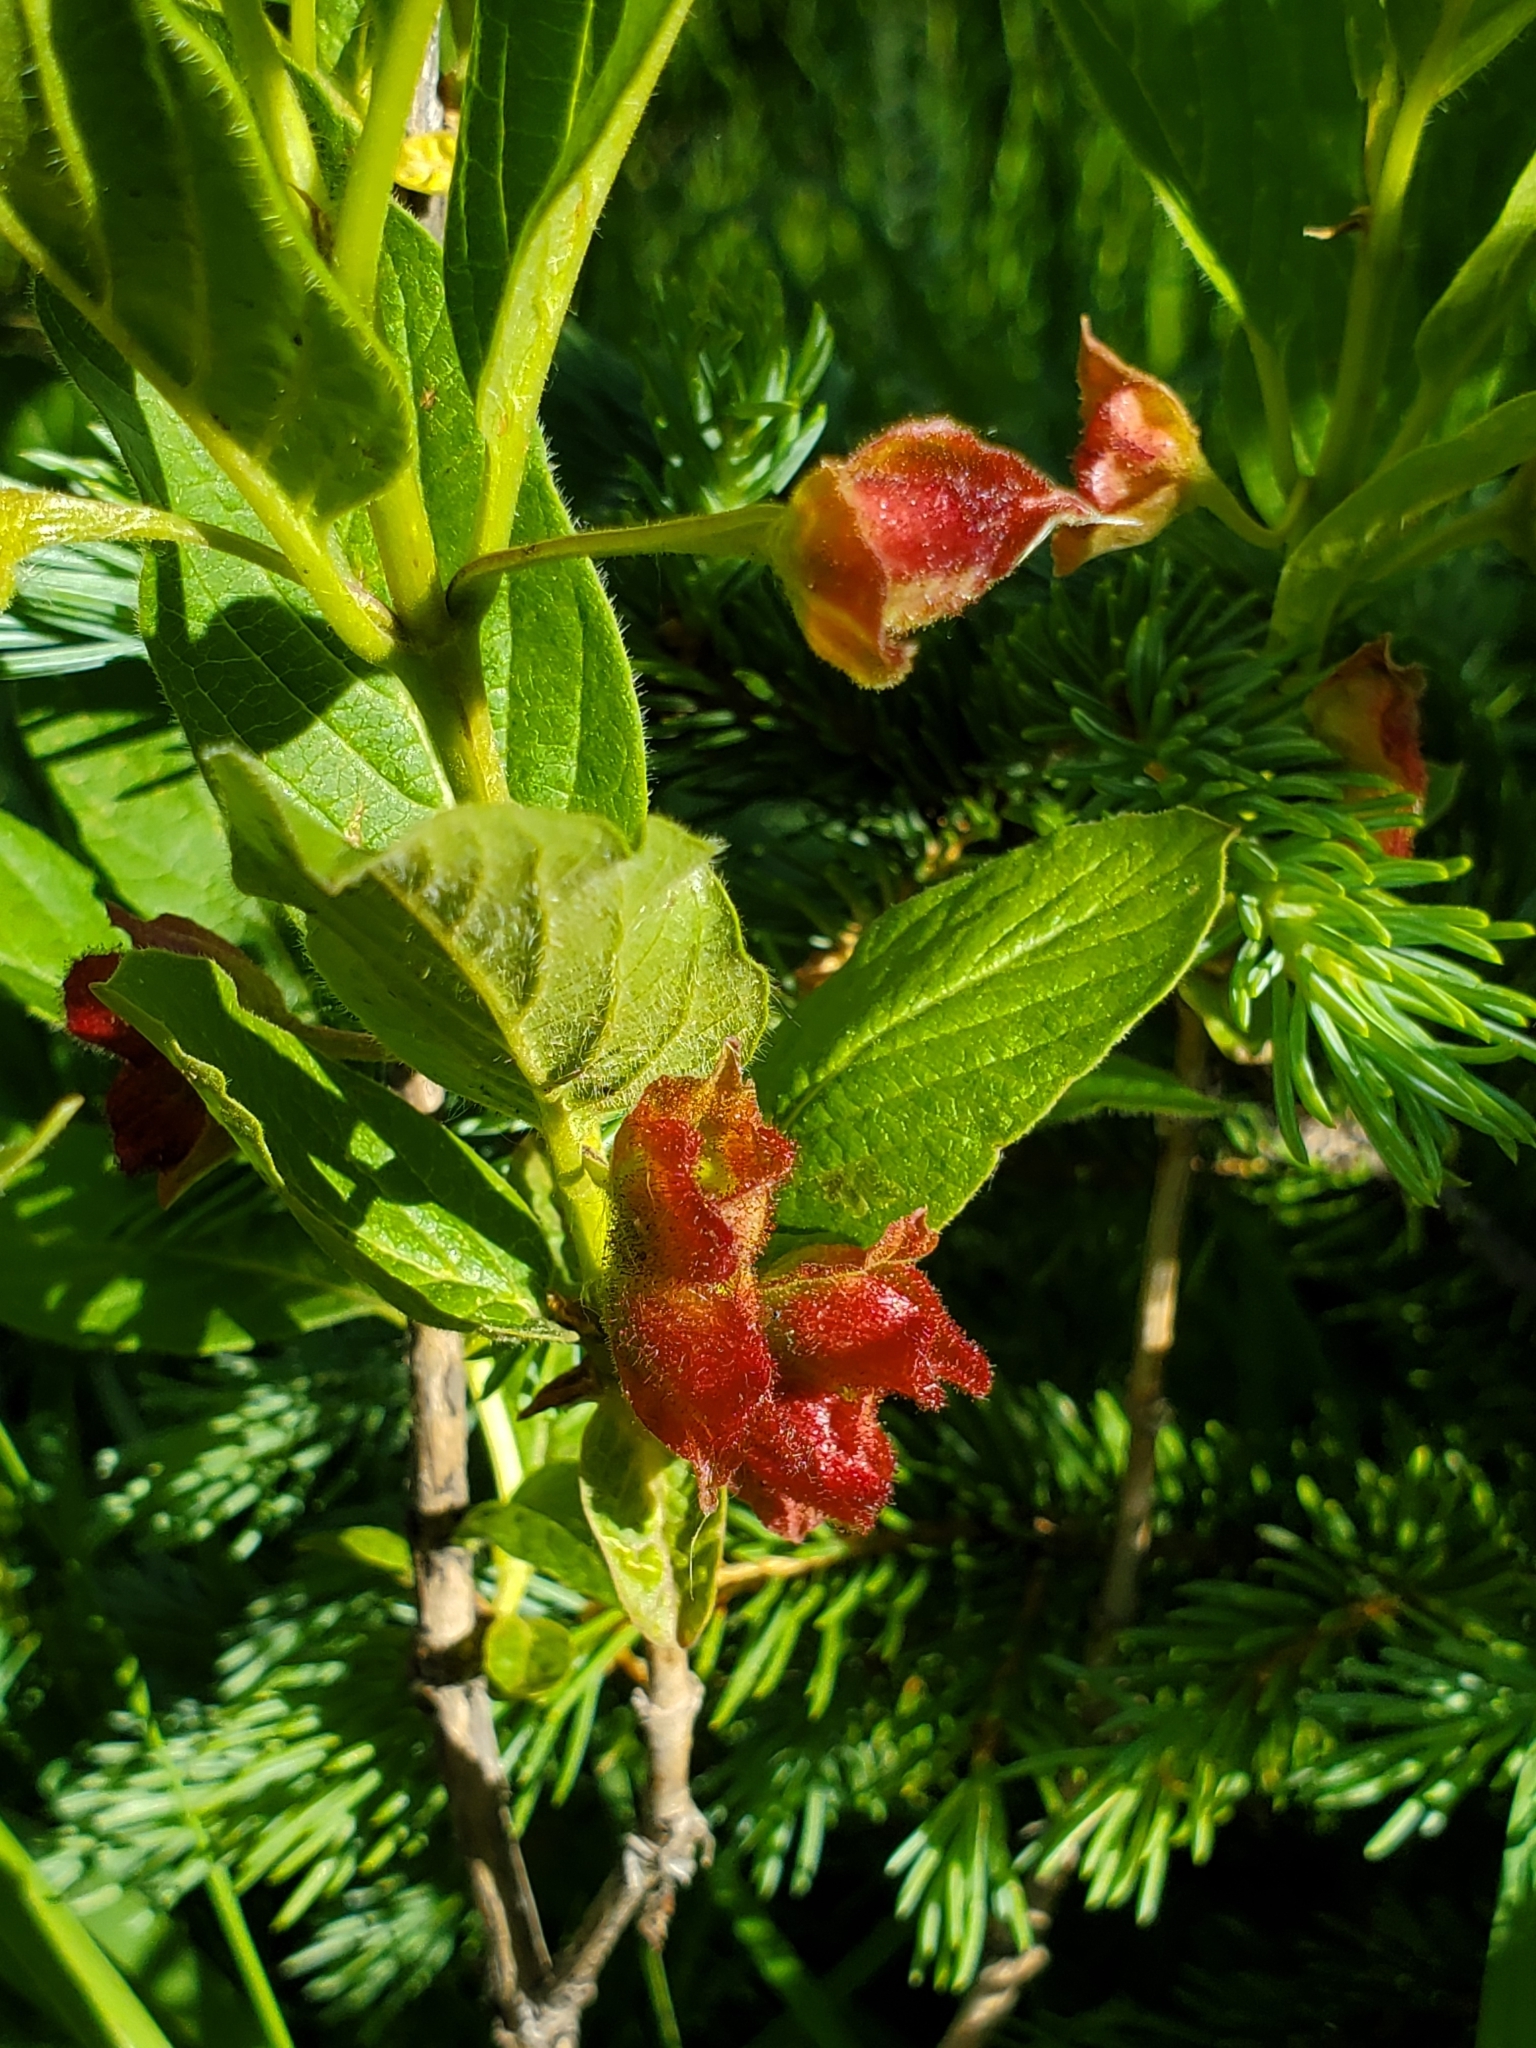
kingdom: Plantae
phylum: Tracheophyta
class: Magnoliopsida
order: Dipsacales
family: Caprifoliaceae
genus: Lonicera
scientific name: Lonicera involucrata
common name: Californian honeysuckle
